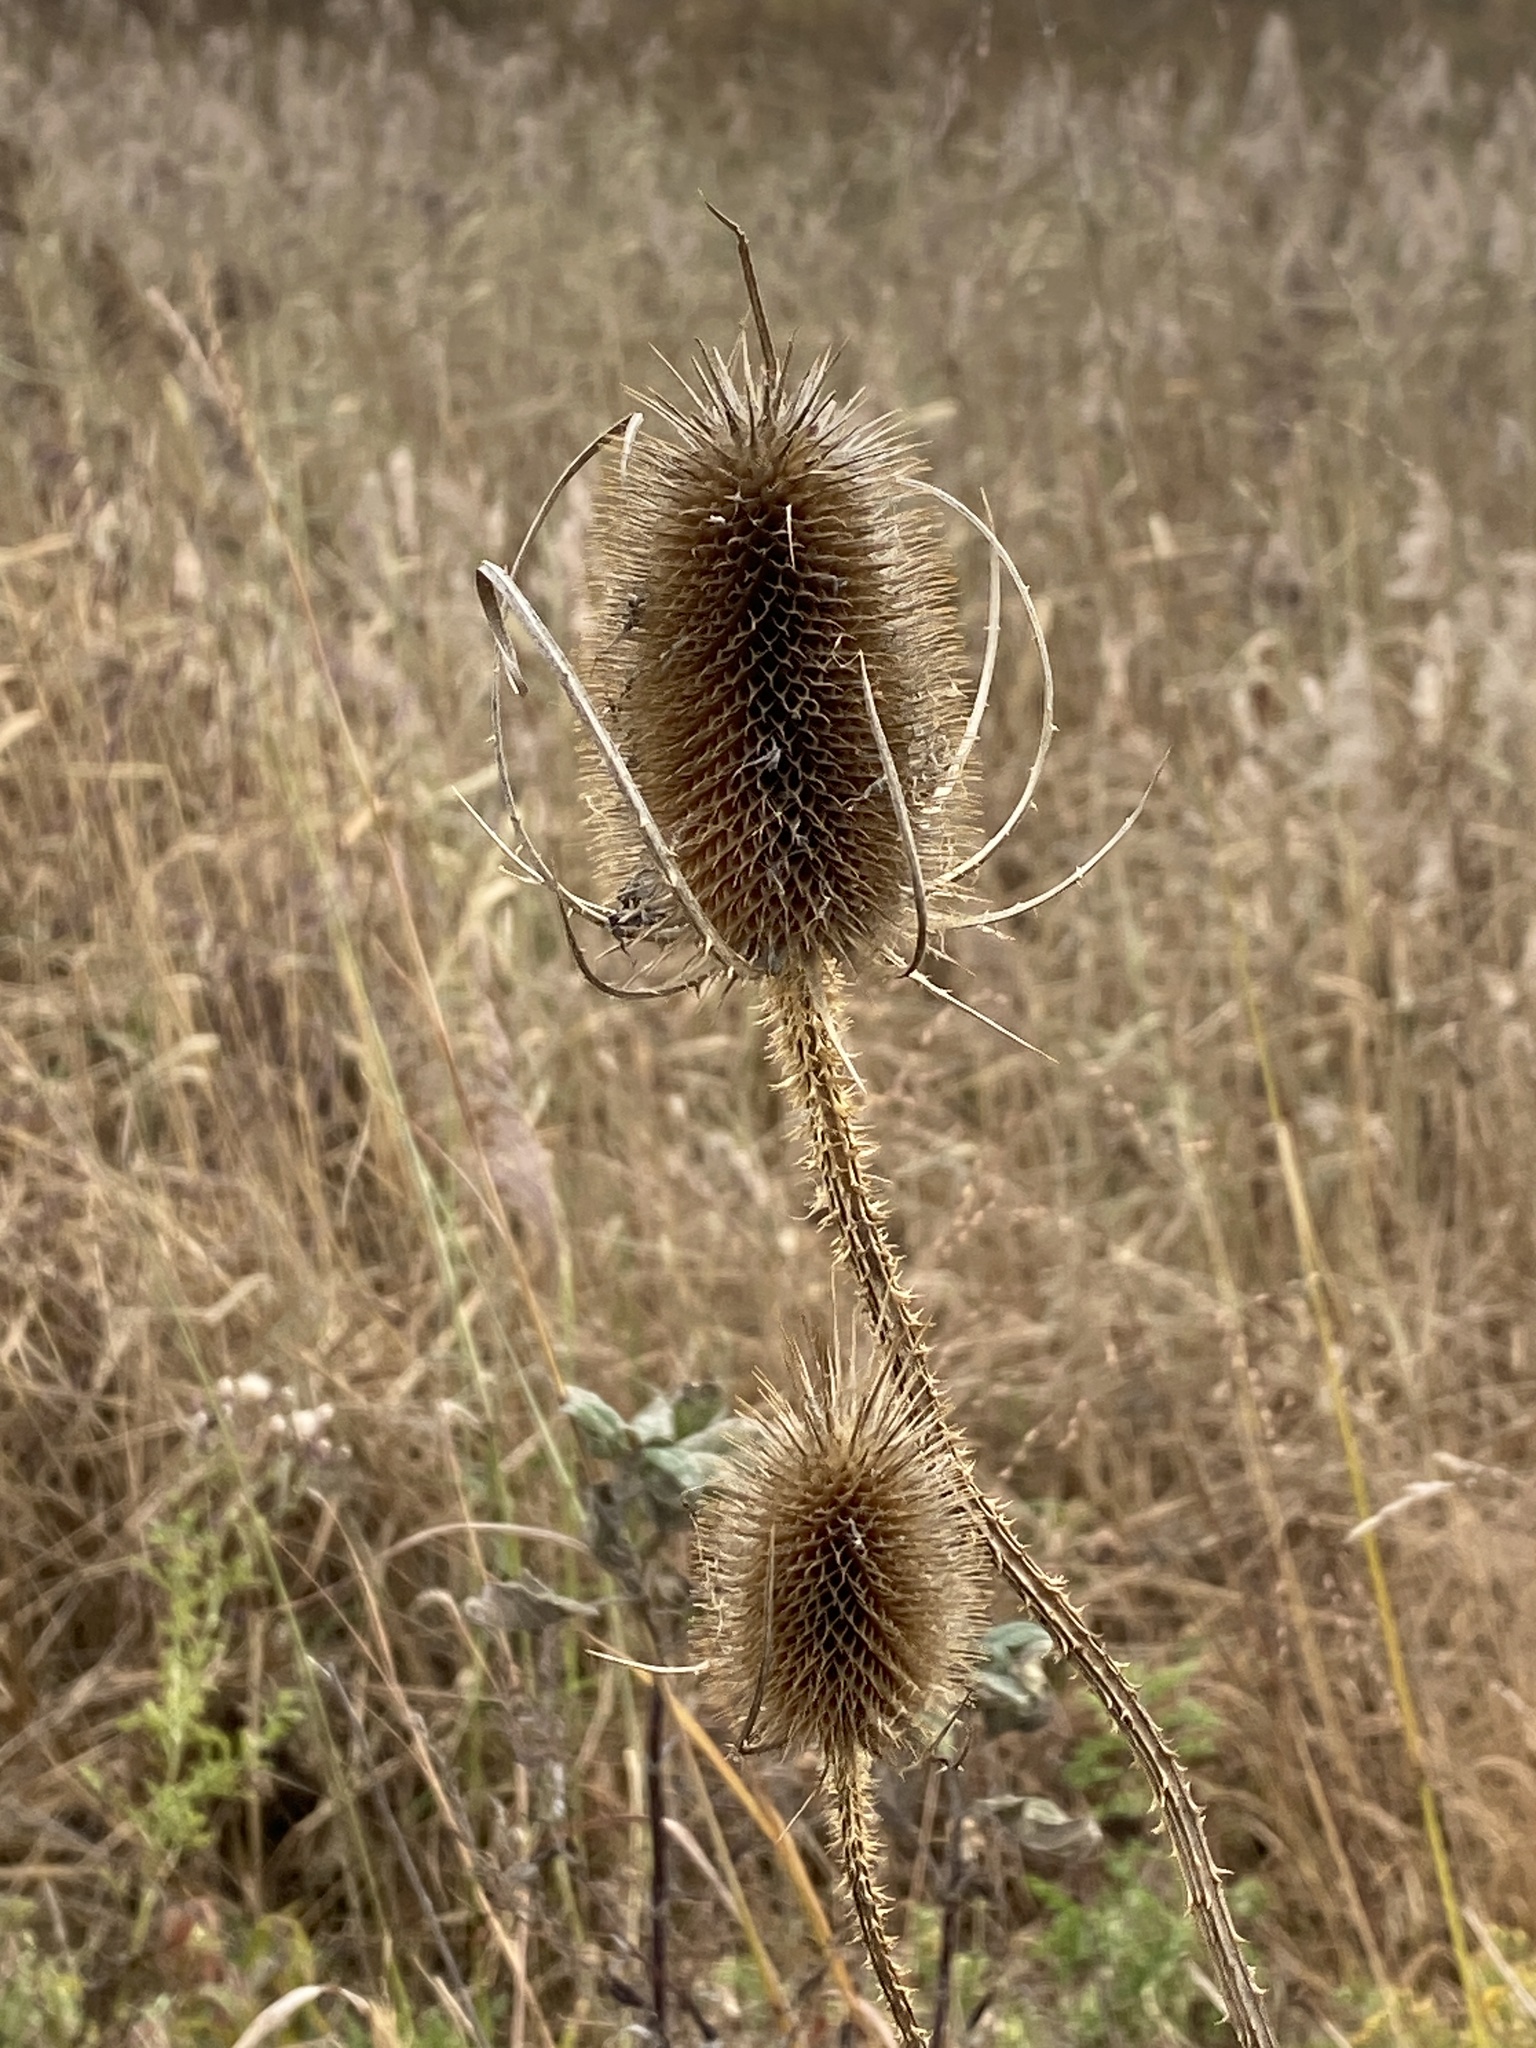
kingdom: Plantae
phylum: Tracheophyta
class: Magnoliopsida
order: Dipsacales
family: Caprifoliaceae
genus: Dipsacus
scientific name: Dipsacus fullonum
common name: Teasel
